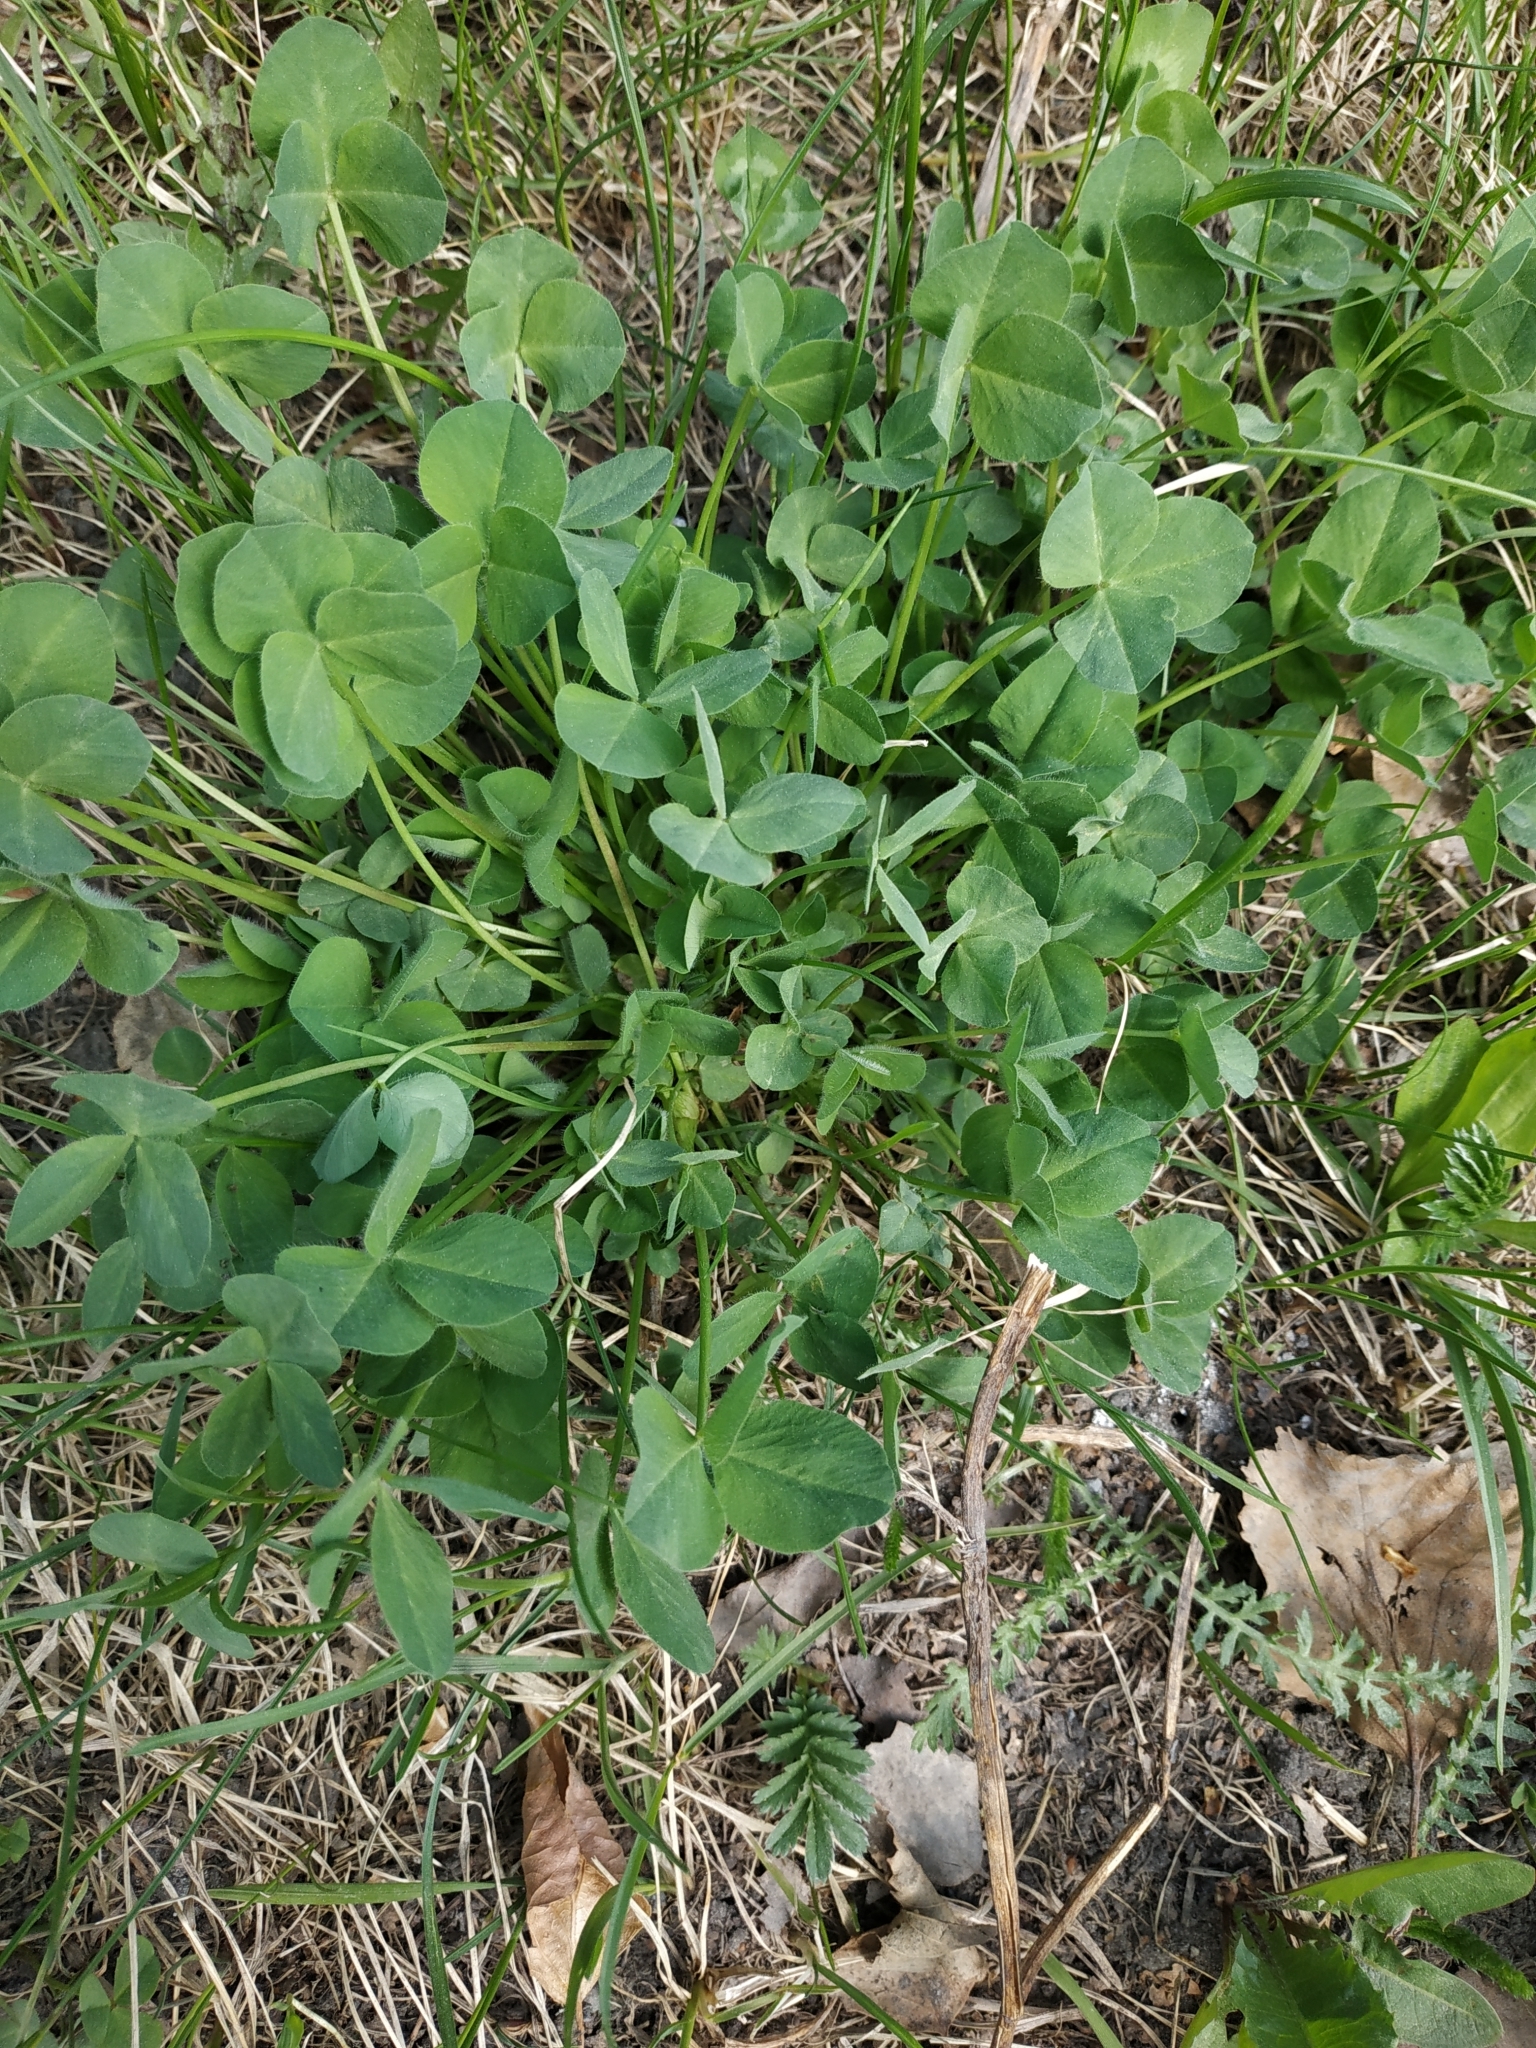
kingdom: Plantae
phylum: Tracheophyta
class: Magnoliopsida
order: Fabales
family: Fabaceae
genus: Trifolium
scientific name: Trifolium repens
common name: White clover
